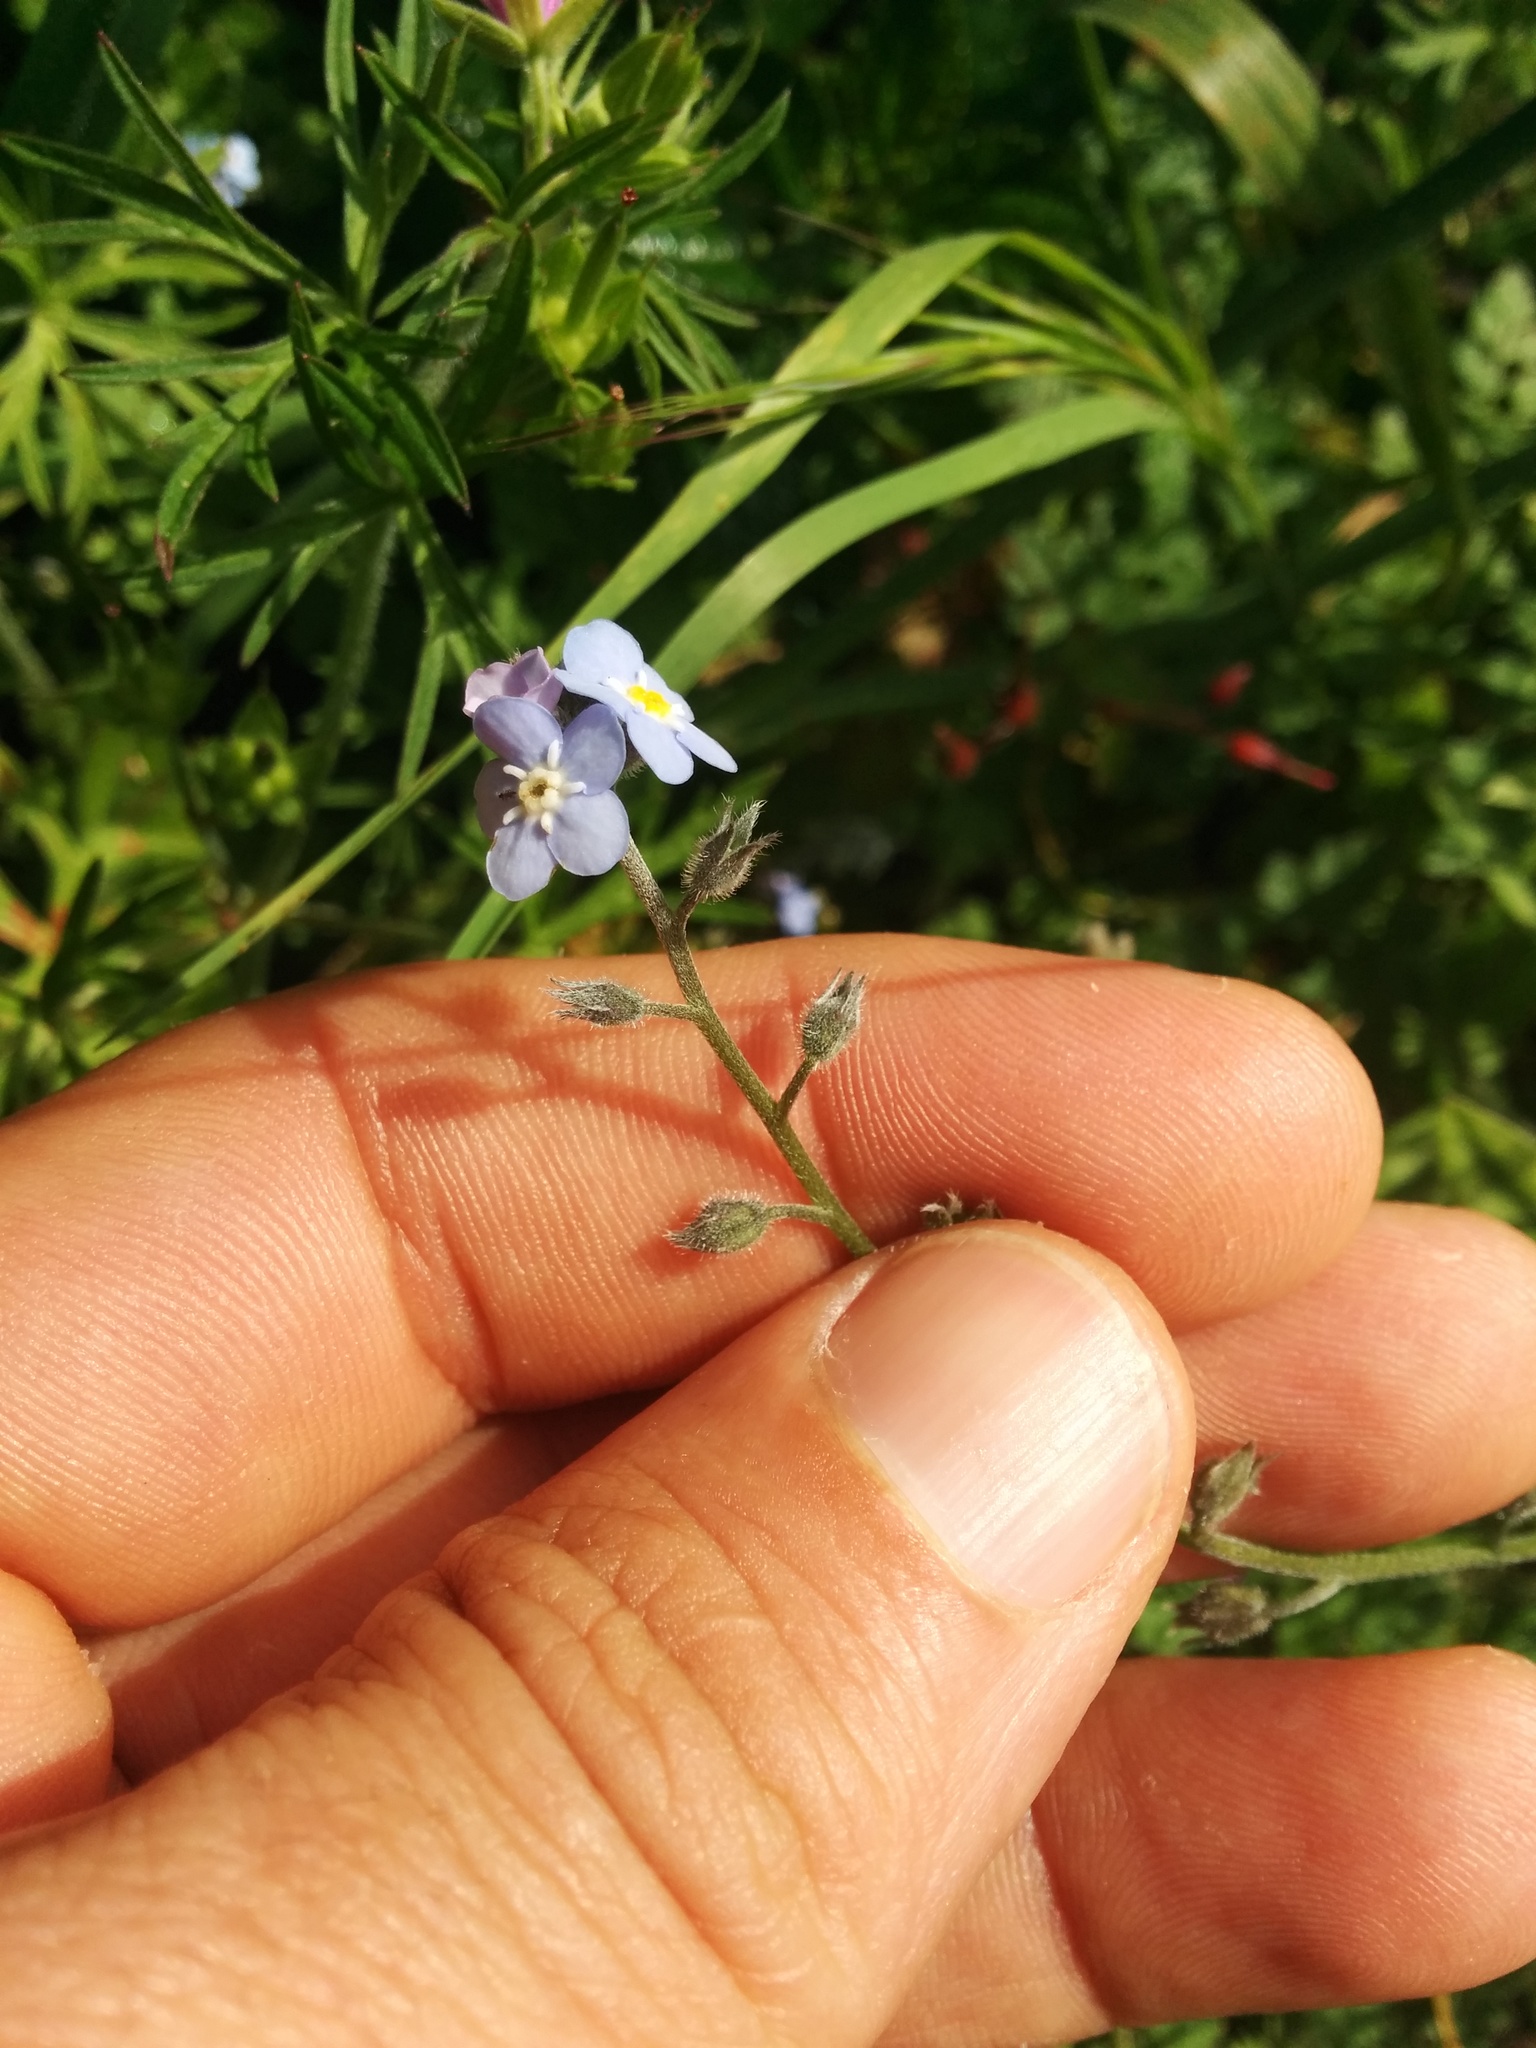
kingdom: Plantae
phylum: Tracheophyta
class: Magnoliopsida
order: Boraginales
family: Boraginaceae
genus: Myosotis
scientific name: Myosotis latifolia
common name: Broadleaf forget-me-not
